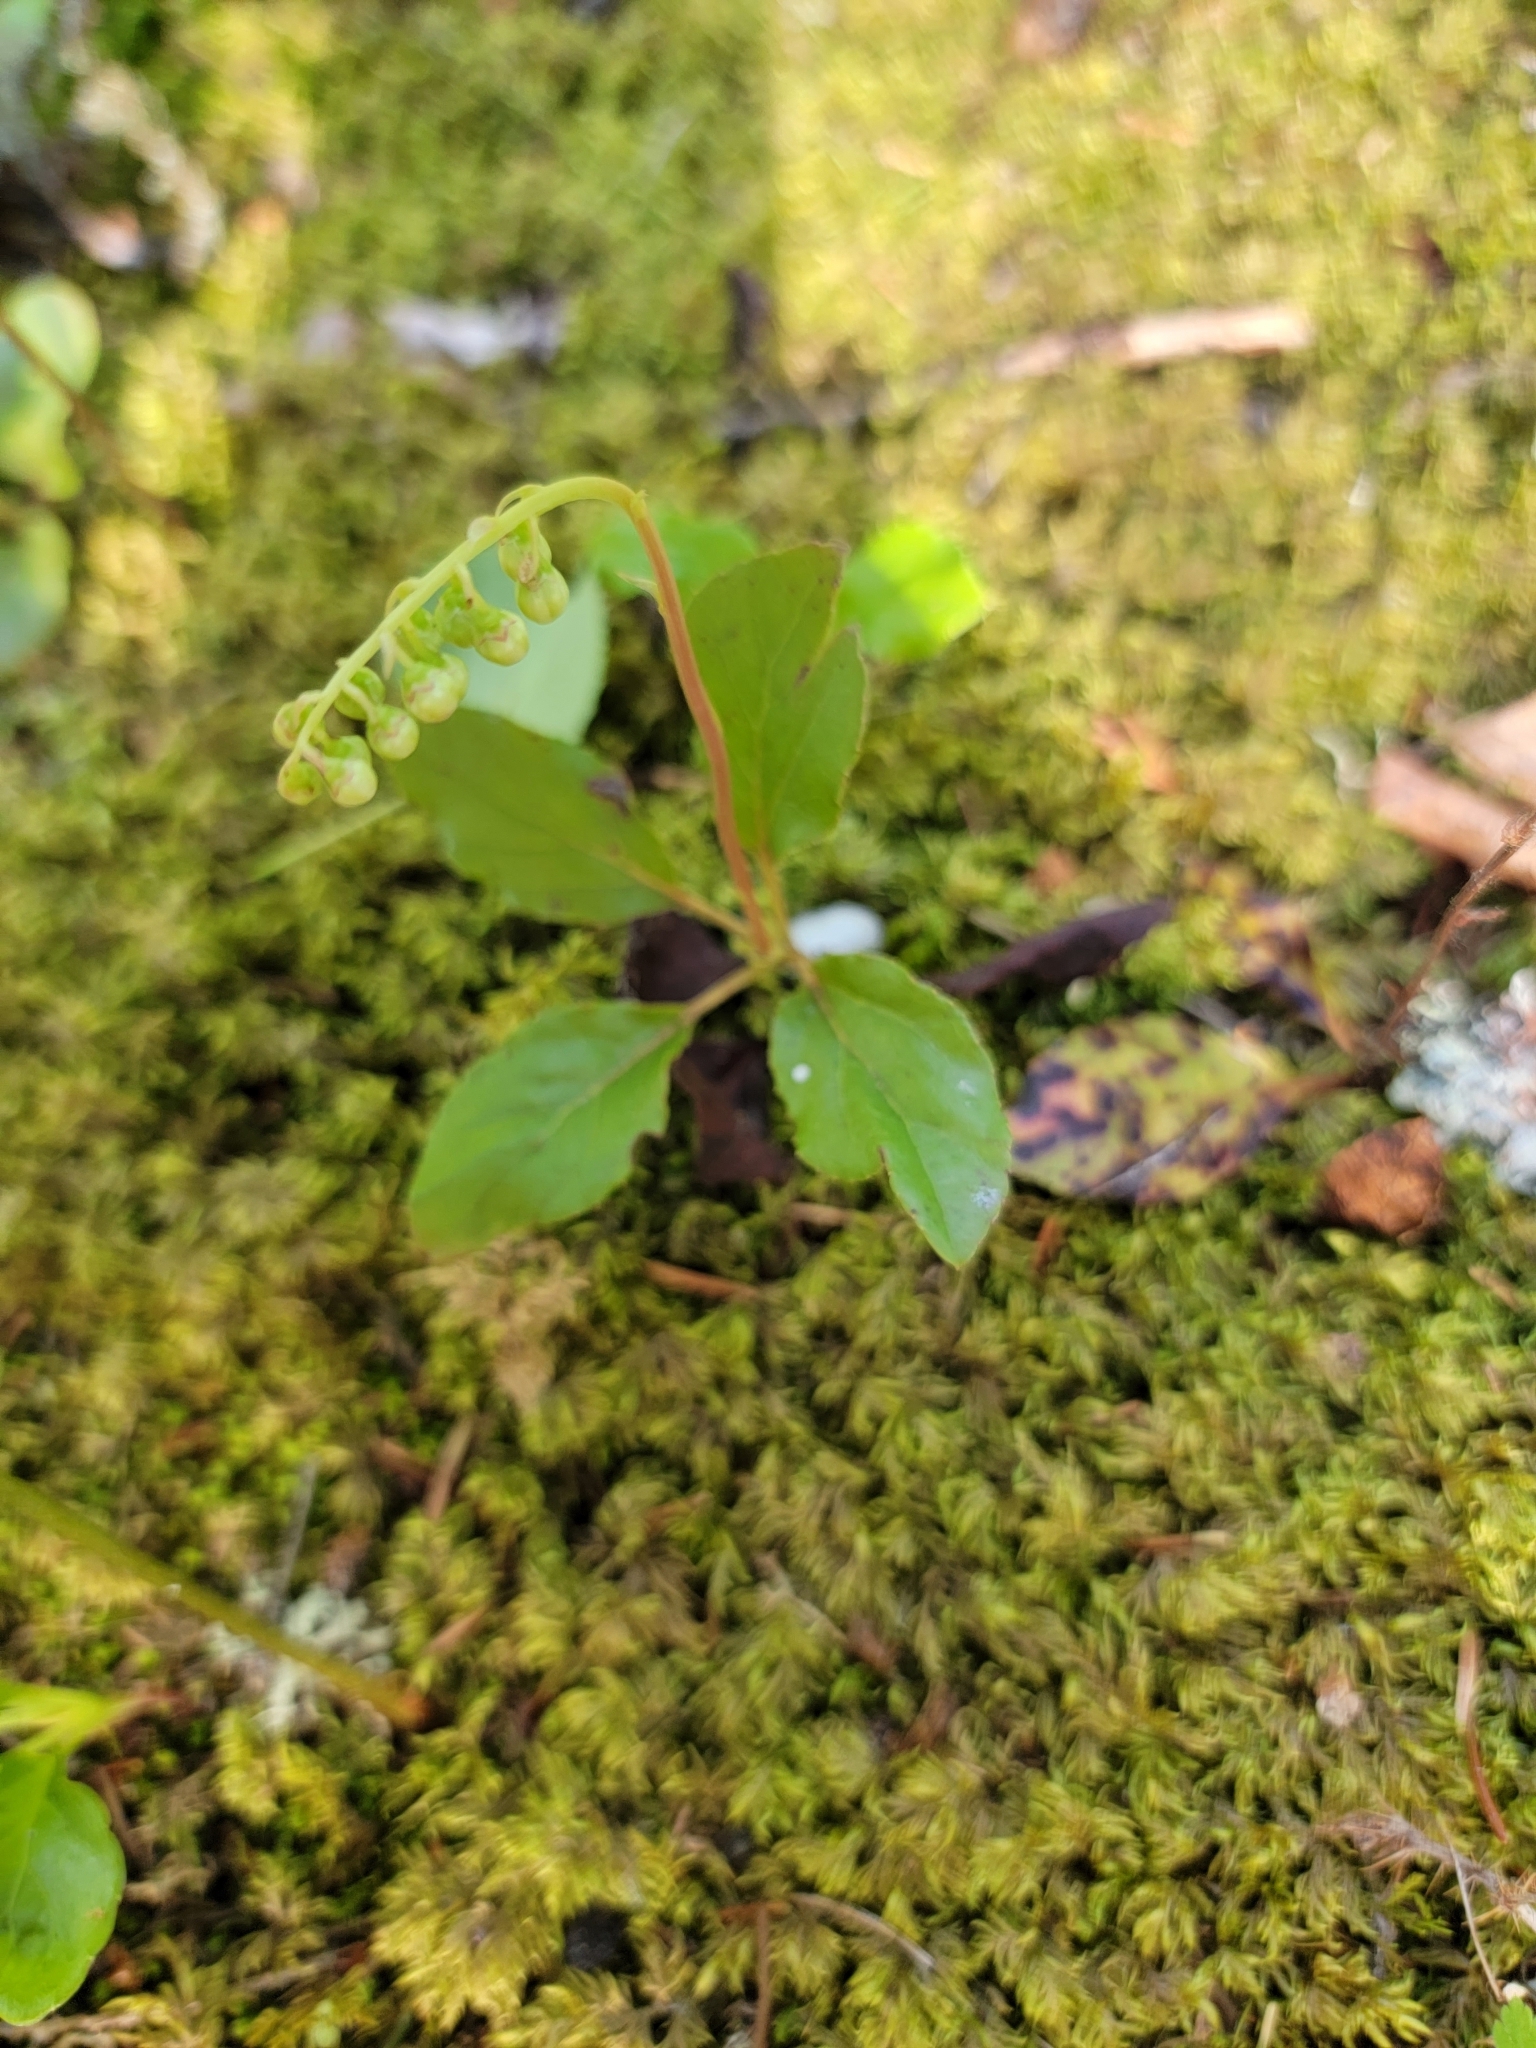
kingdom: Plantae
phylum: Tracheophyta
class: Magnoliopsida
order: Ericales
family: Ericaceae
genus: Orthilia
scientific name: Orthilia secunda
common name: One-sided orthilia
